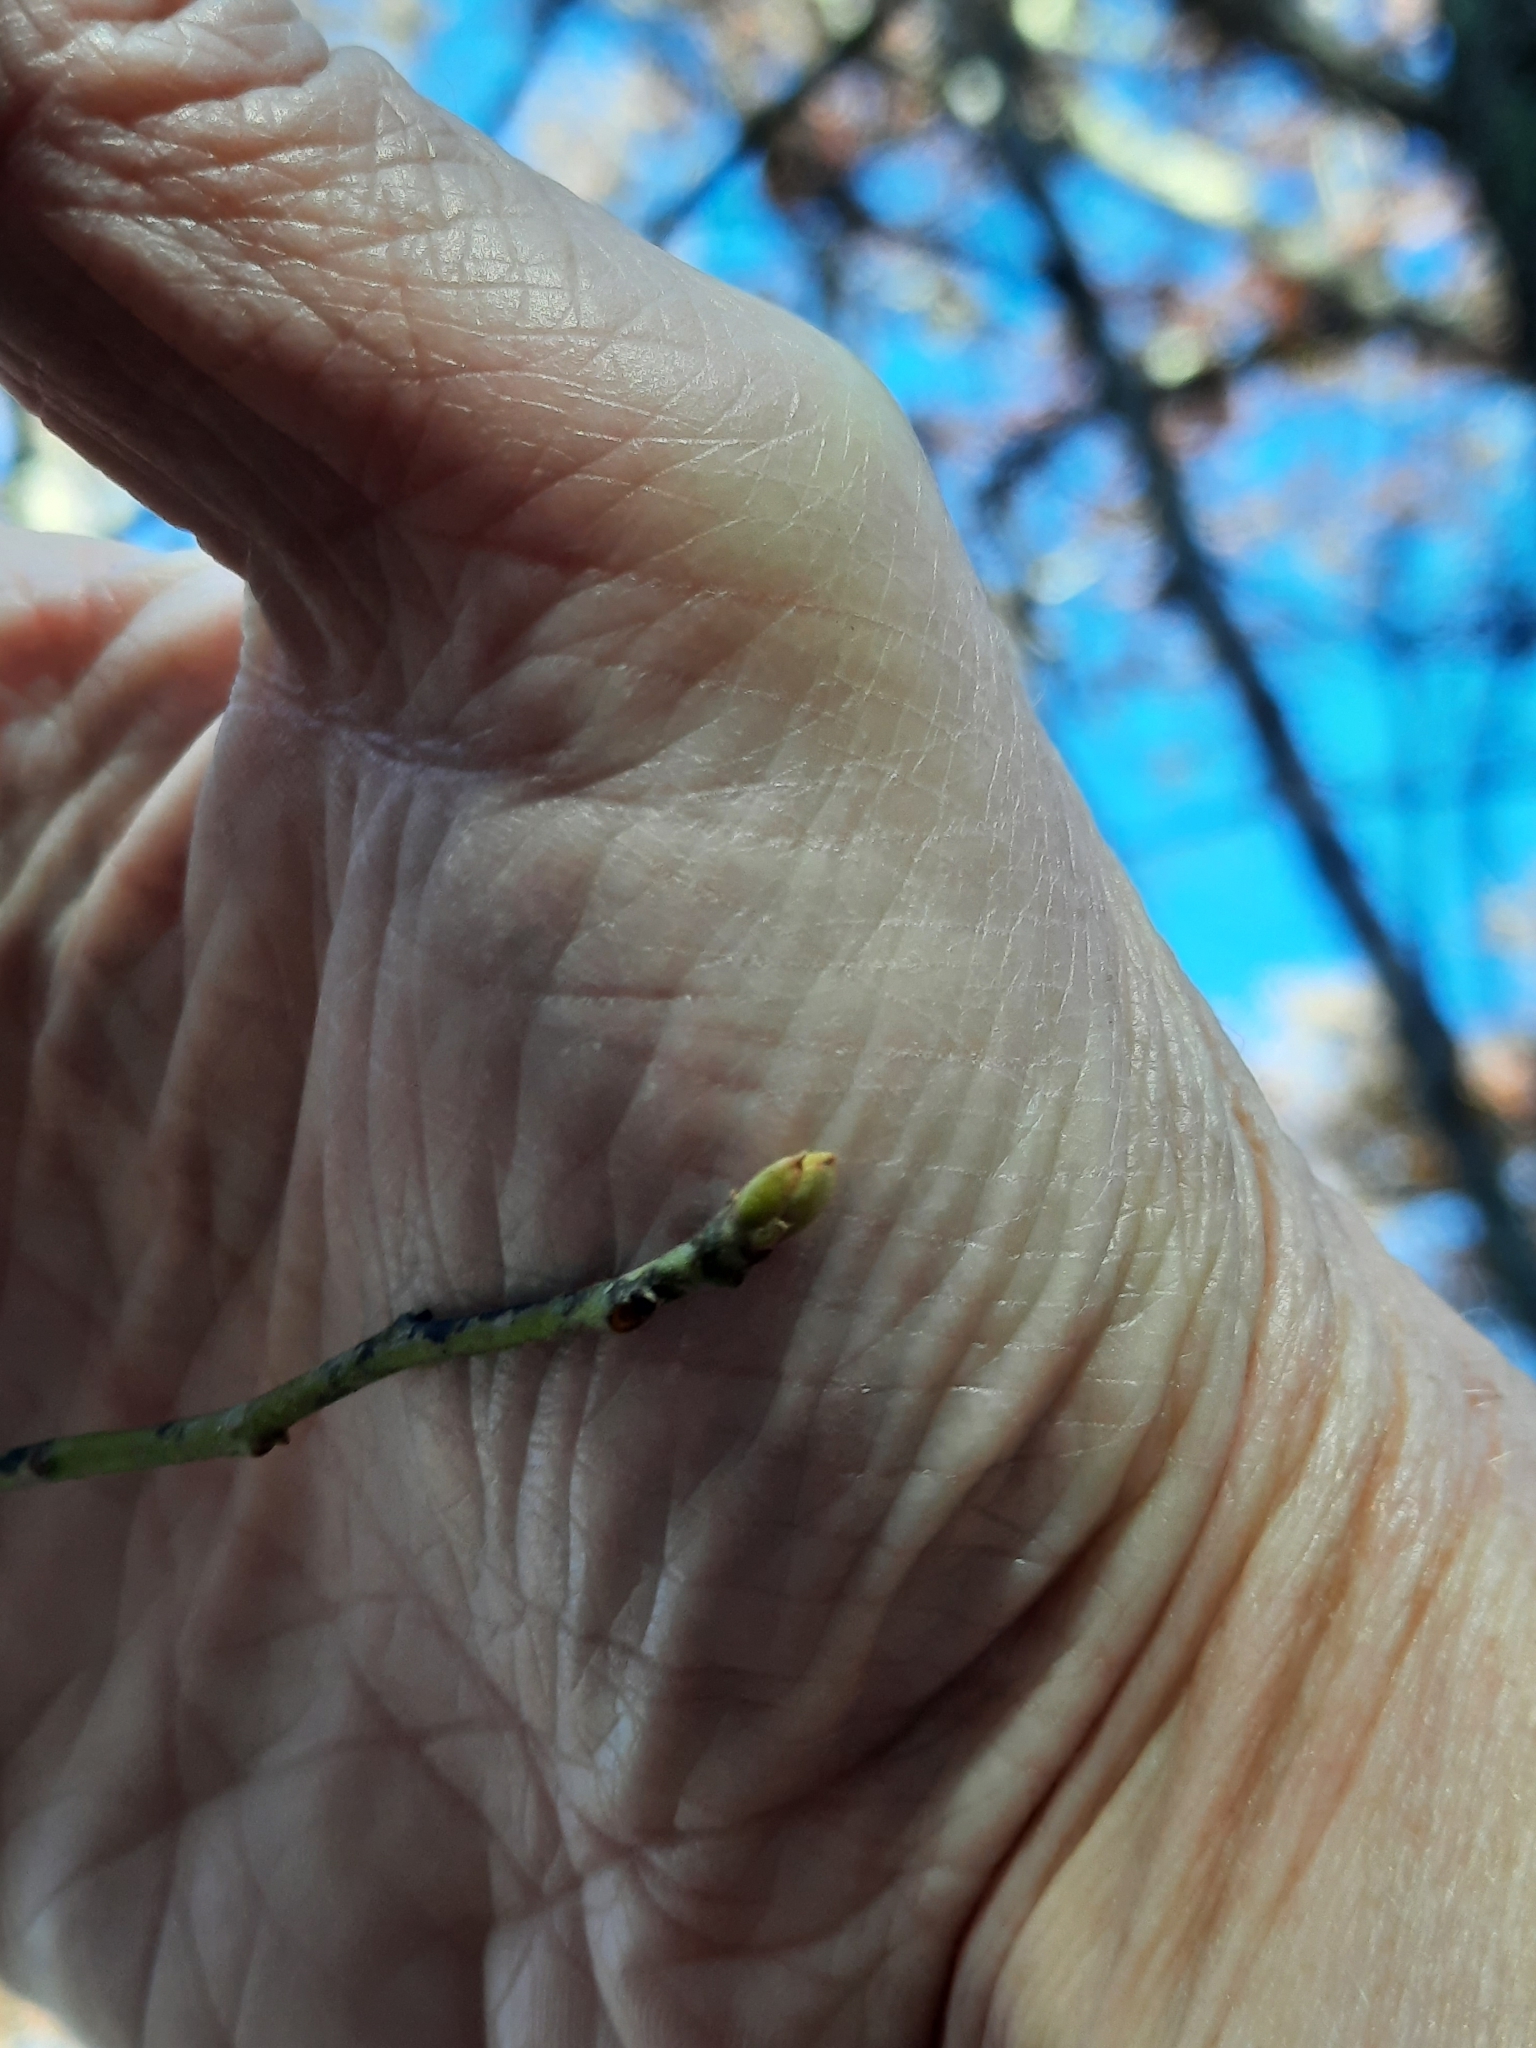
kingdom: Plantae
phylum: Tracheophyta
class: Magnoliopsida
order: Laurales
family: Lauraceae
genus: Sassafras
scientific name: Sassafras albidum
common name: Sassafras
